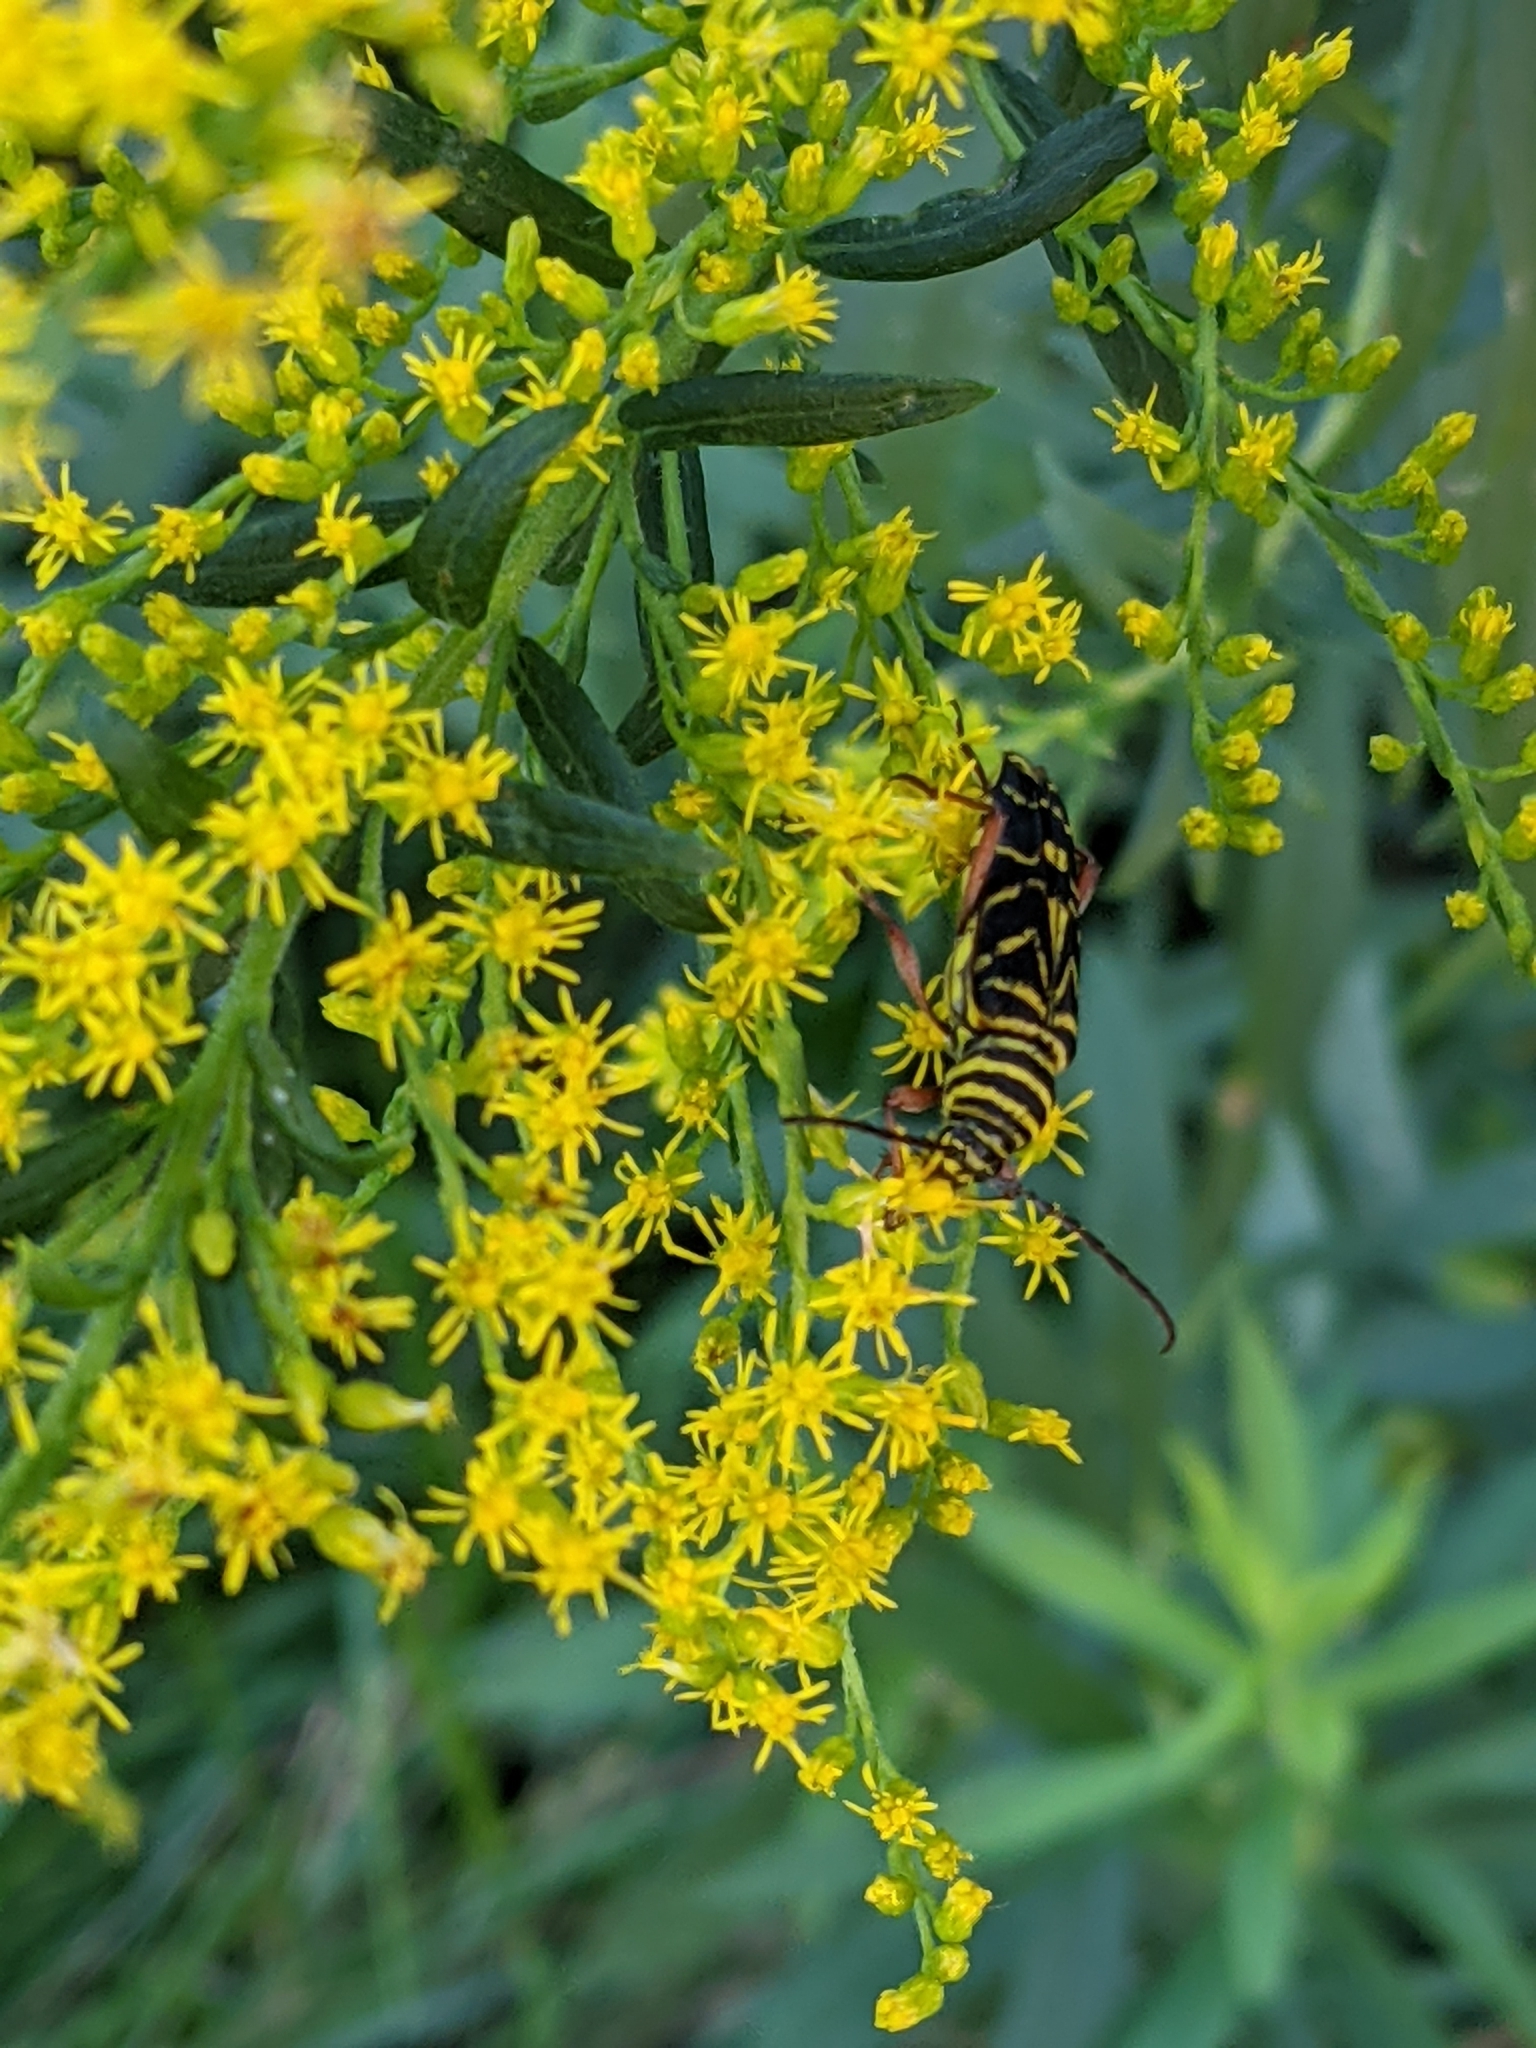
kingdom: Animalia
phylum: Arthropoda
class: Insecta
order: Coleoptera
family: Cerambycidae
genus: Megacyllene
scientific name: Megacyllene robiniae
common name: Locust borer
